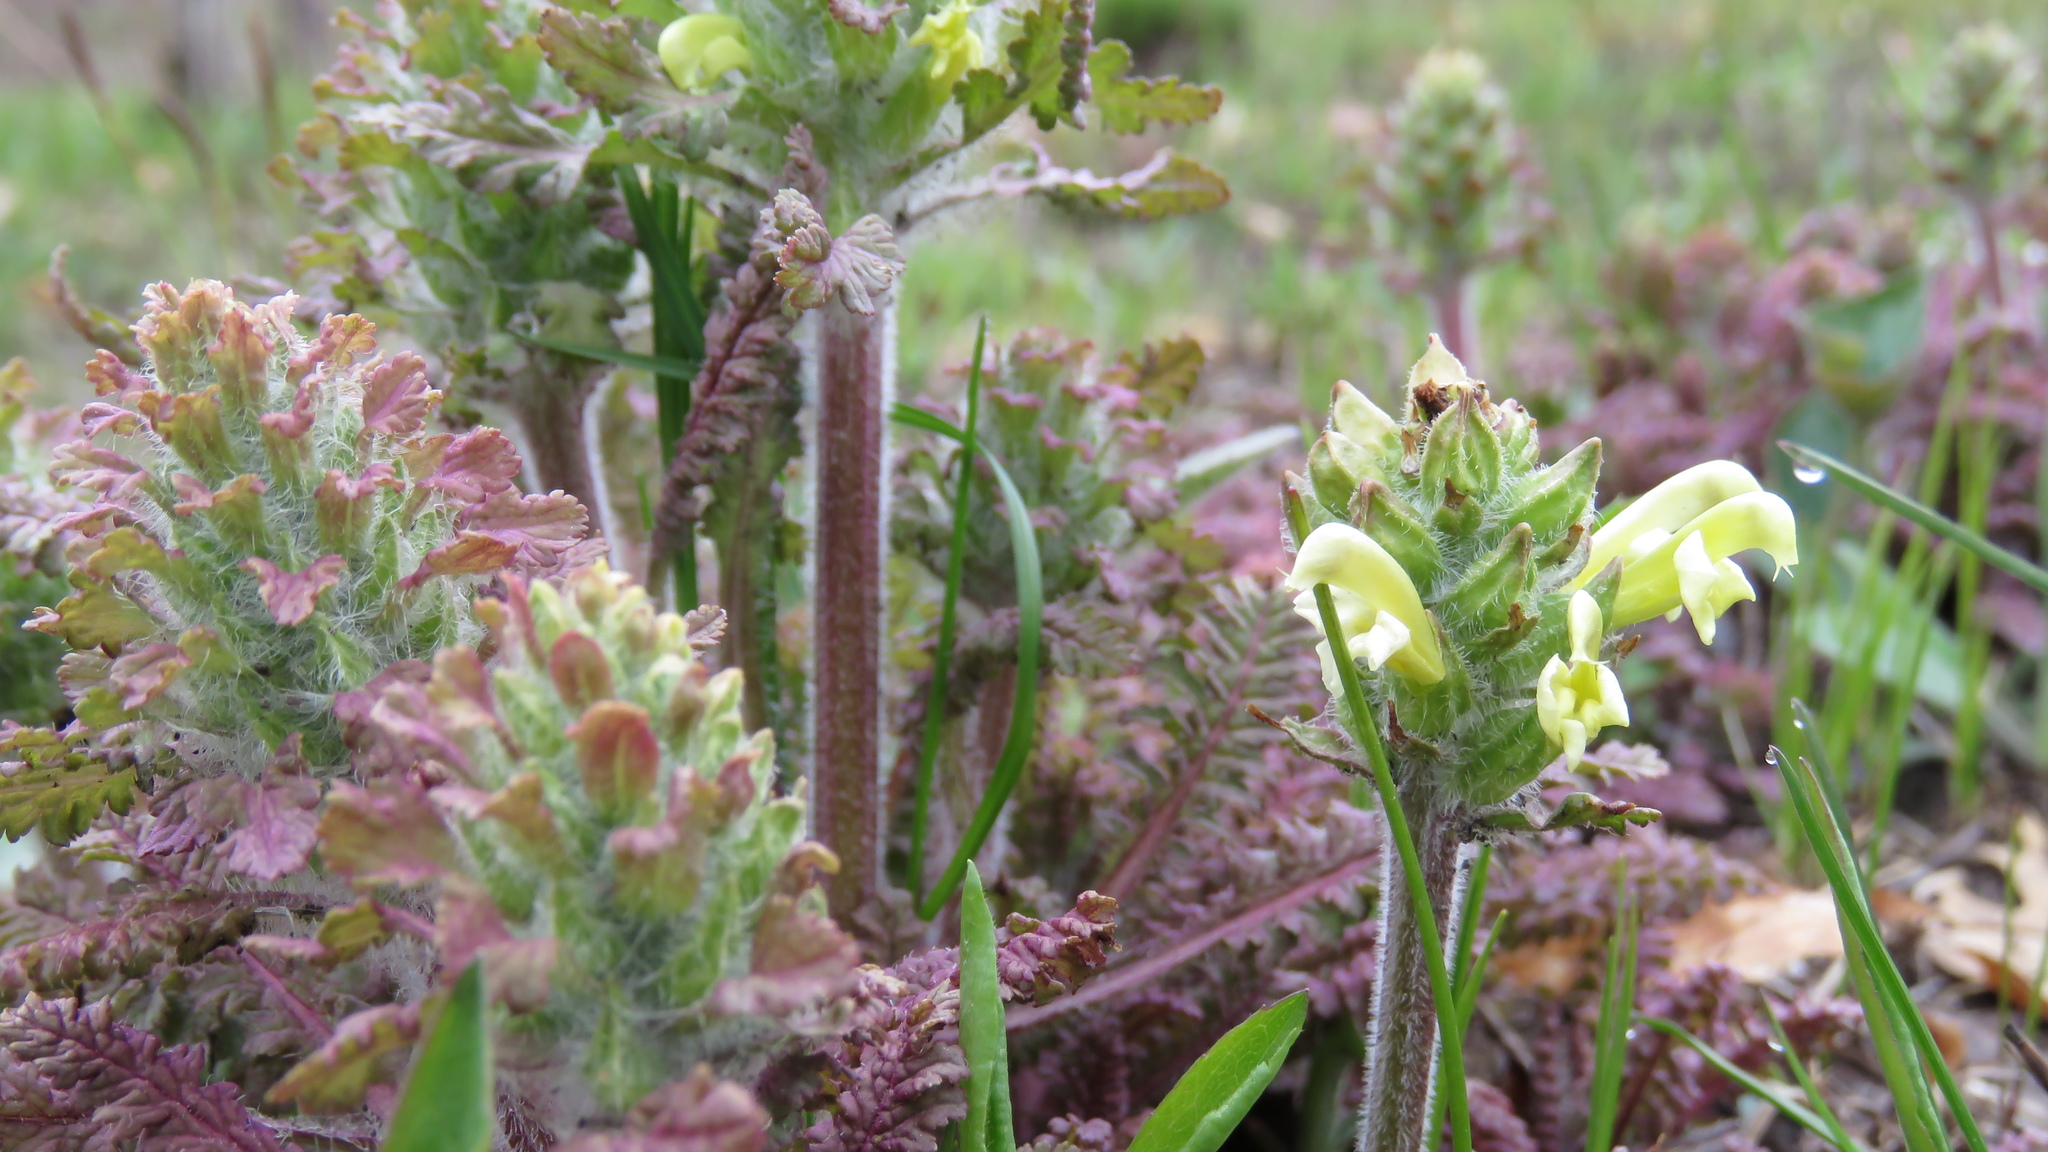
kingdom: Plantae
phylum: Tracheophyta
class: Magnoliopsida
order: Lamiales
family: Orobanchaceae
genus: Pedicularis
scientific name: Pedicularis canadensis
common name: Early lousewort
